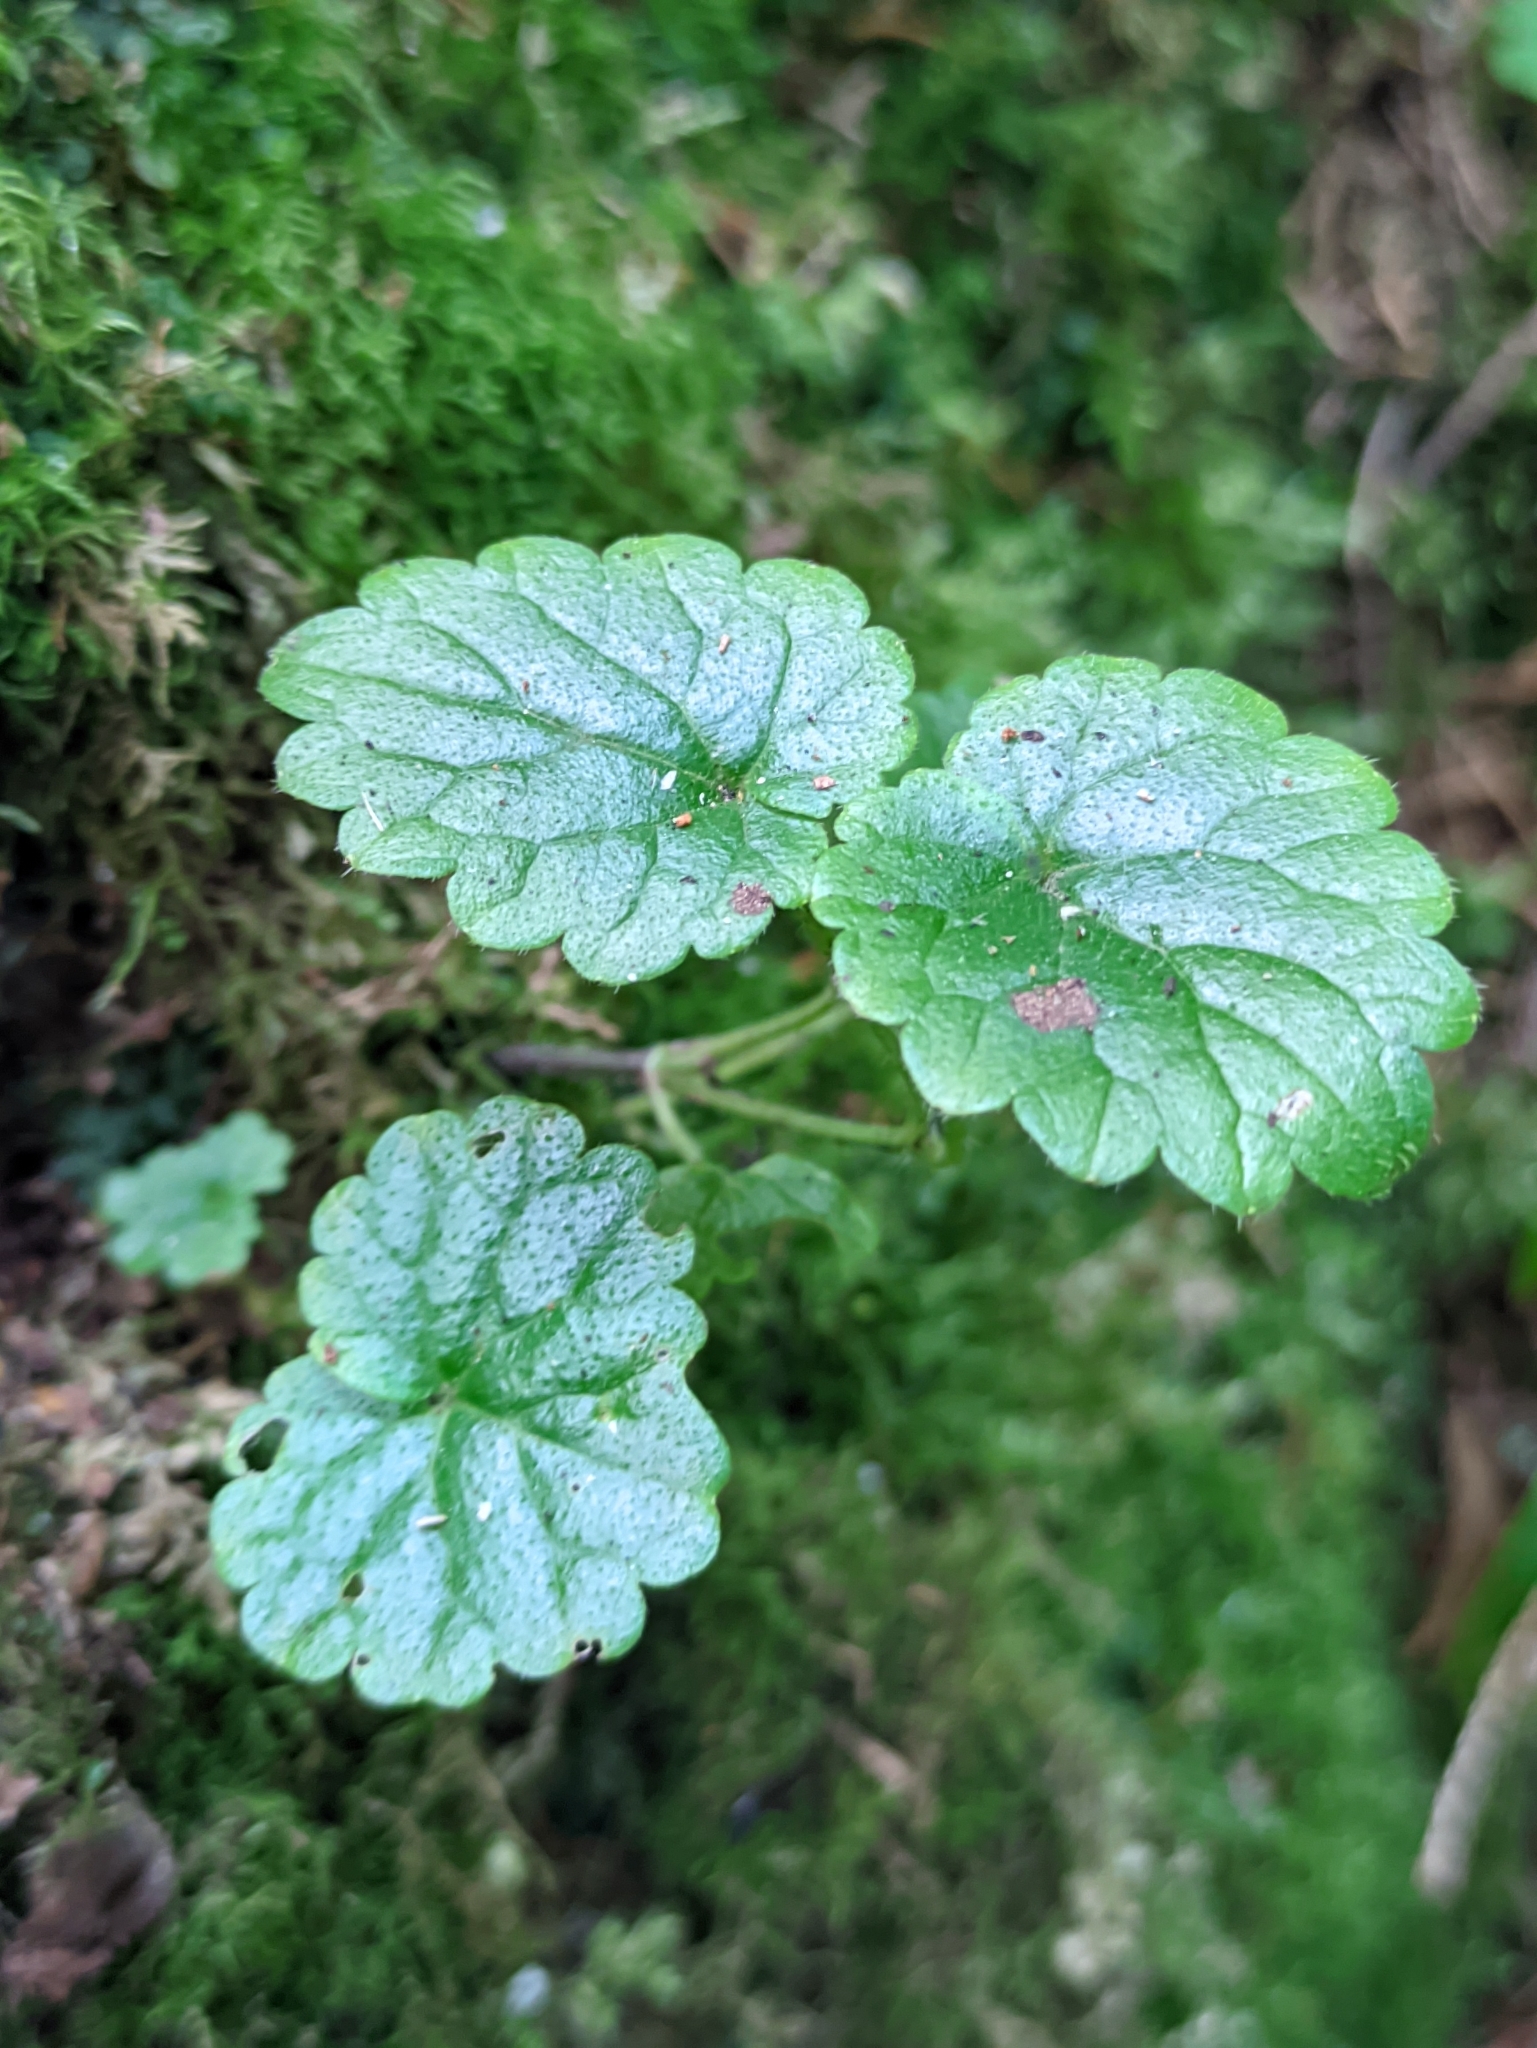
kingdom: Plantae
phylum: Tracheophyta
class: Magnoliopsida
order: Lamiales
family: Lamiaceae
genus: Glechoma
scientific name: Glechoma hederacea
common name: Ground ivy
